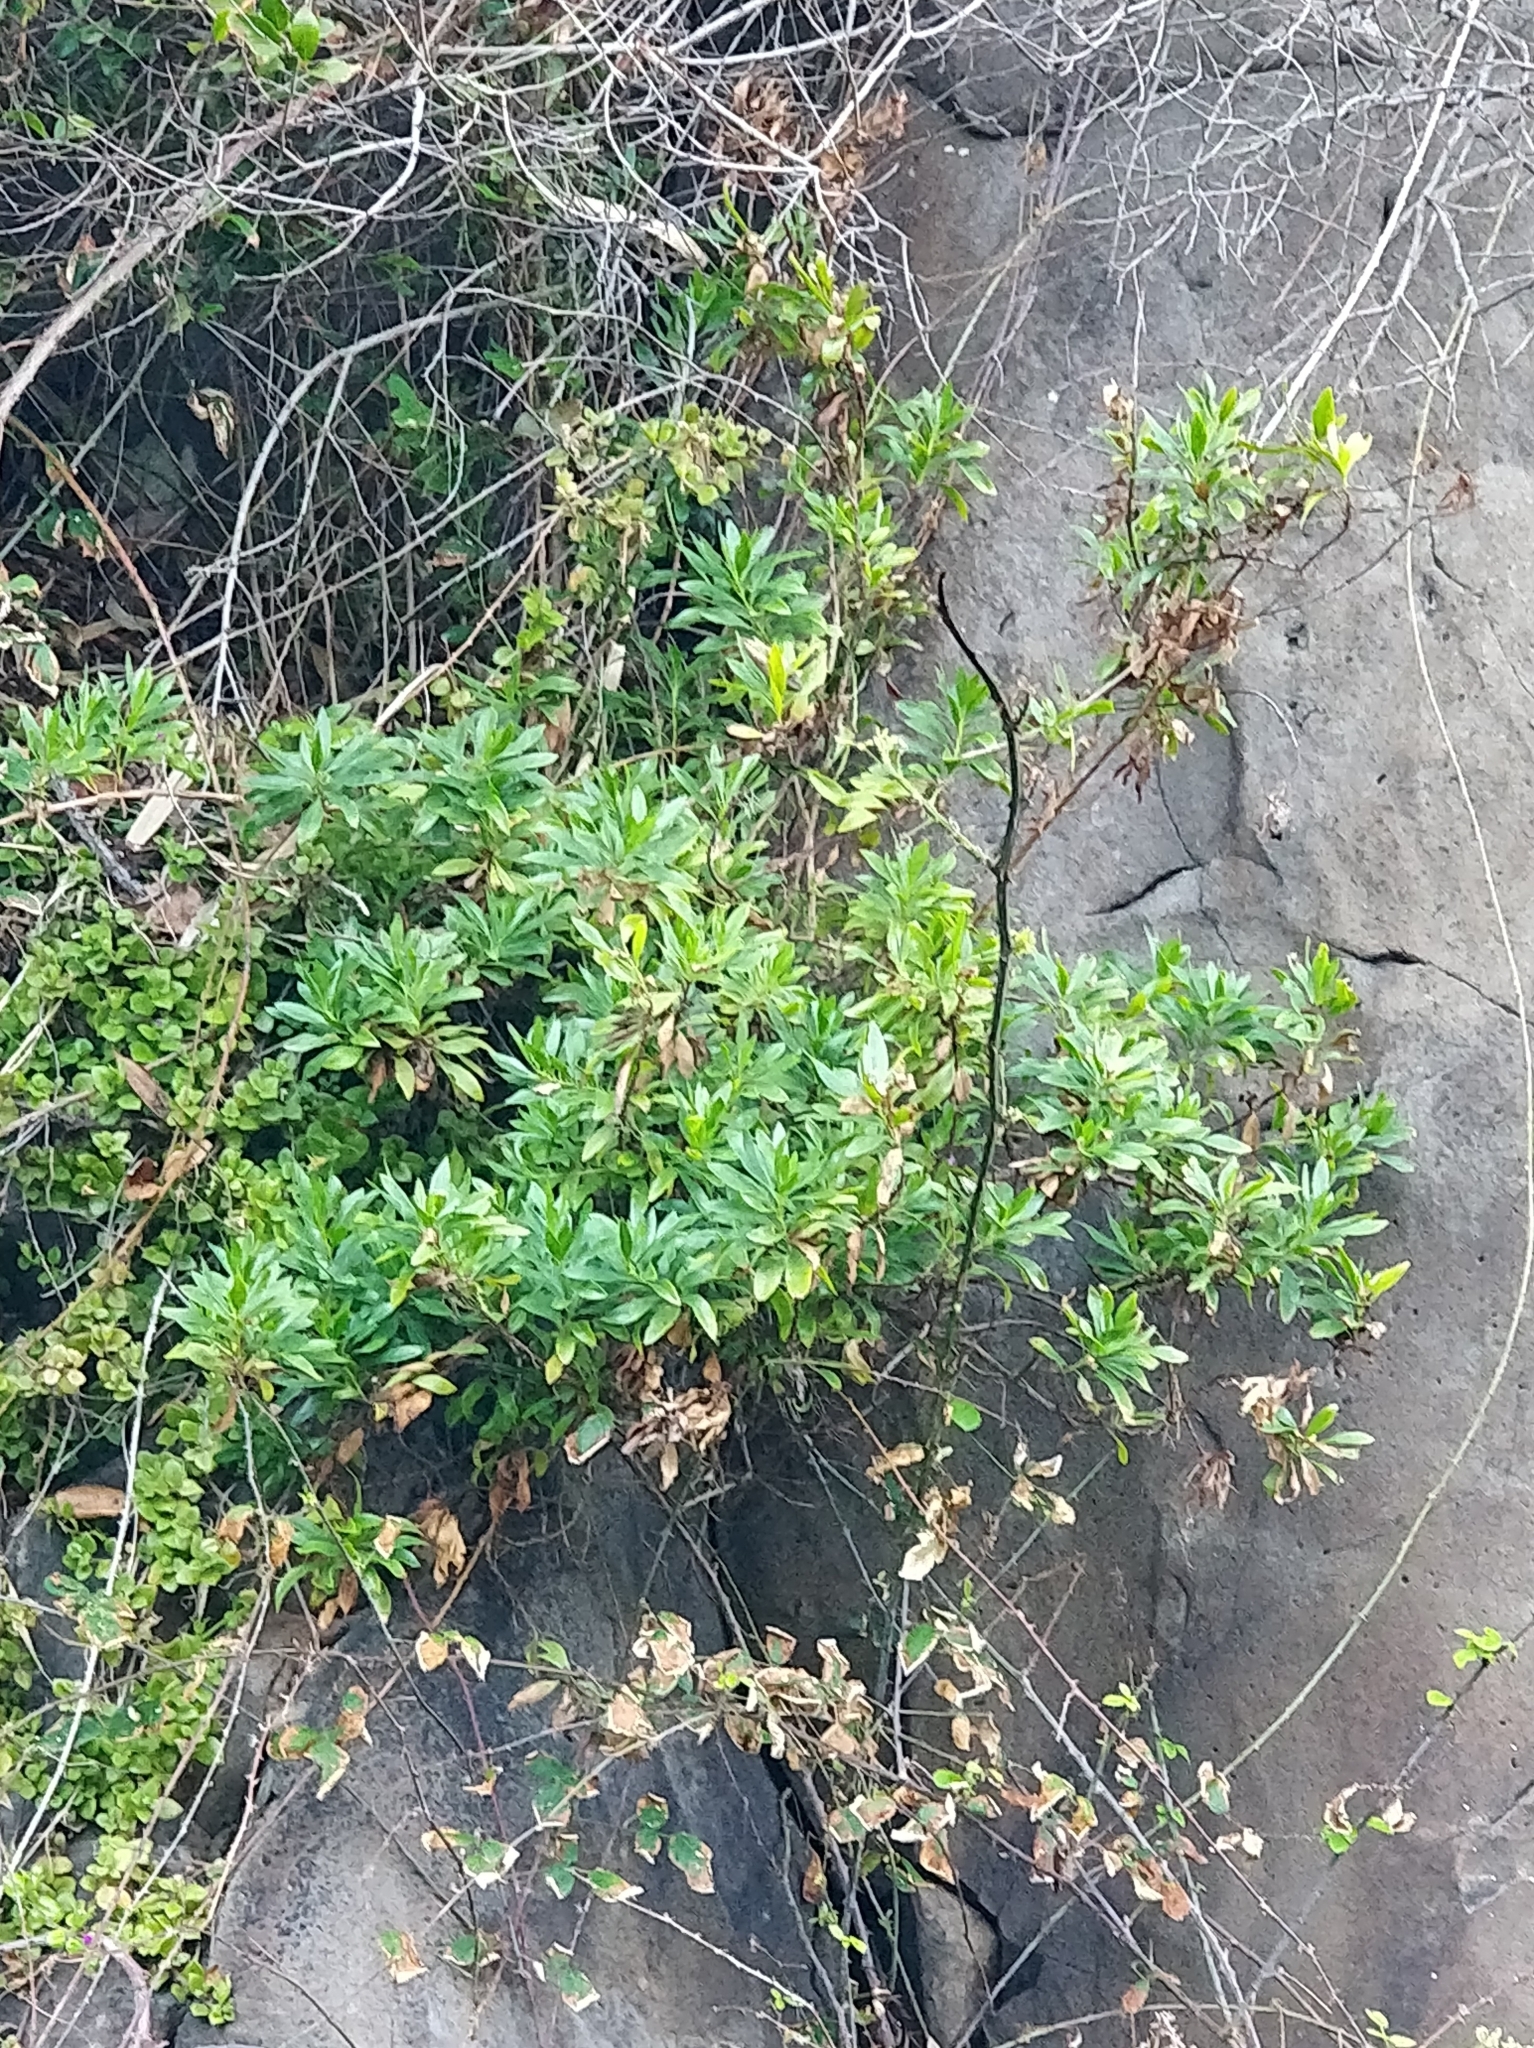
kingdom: Plantae
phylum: Tracheophyta
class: Magnoliopsida
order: Lamiales
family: Plantaginaceae
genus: Globularia
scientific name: Globularia salicina
